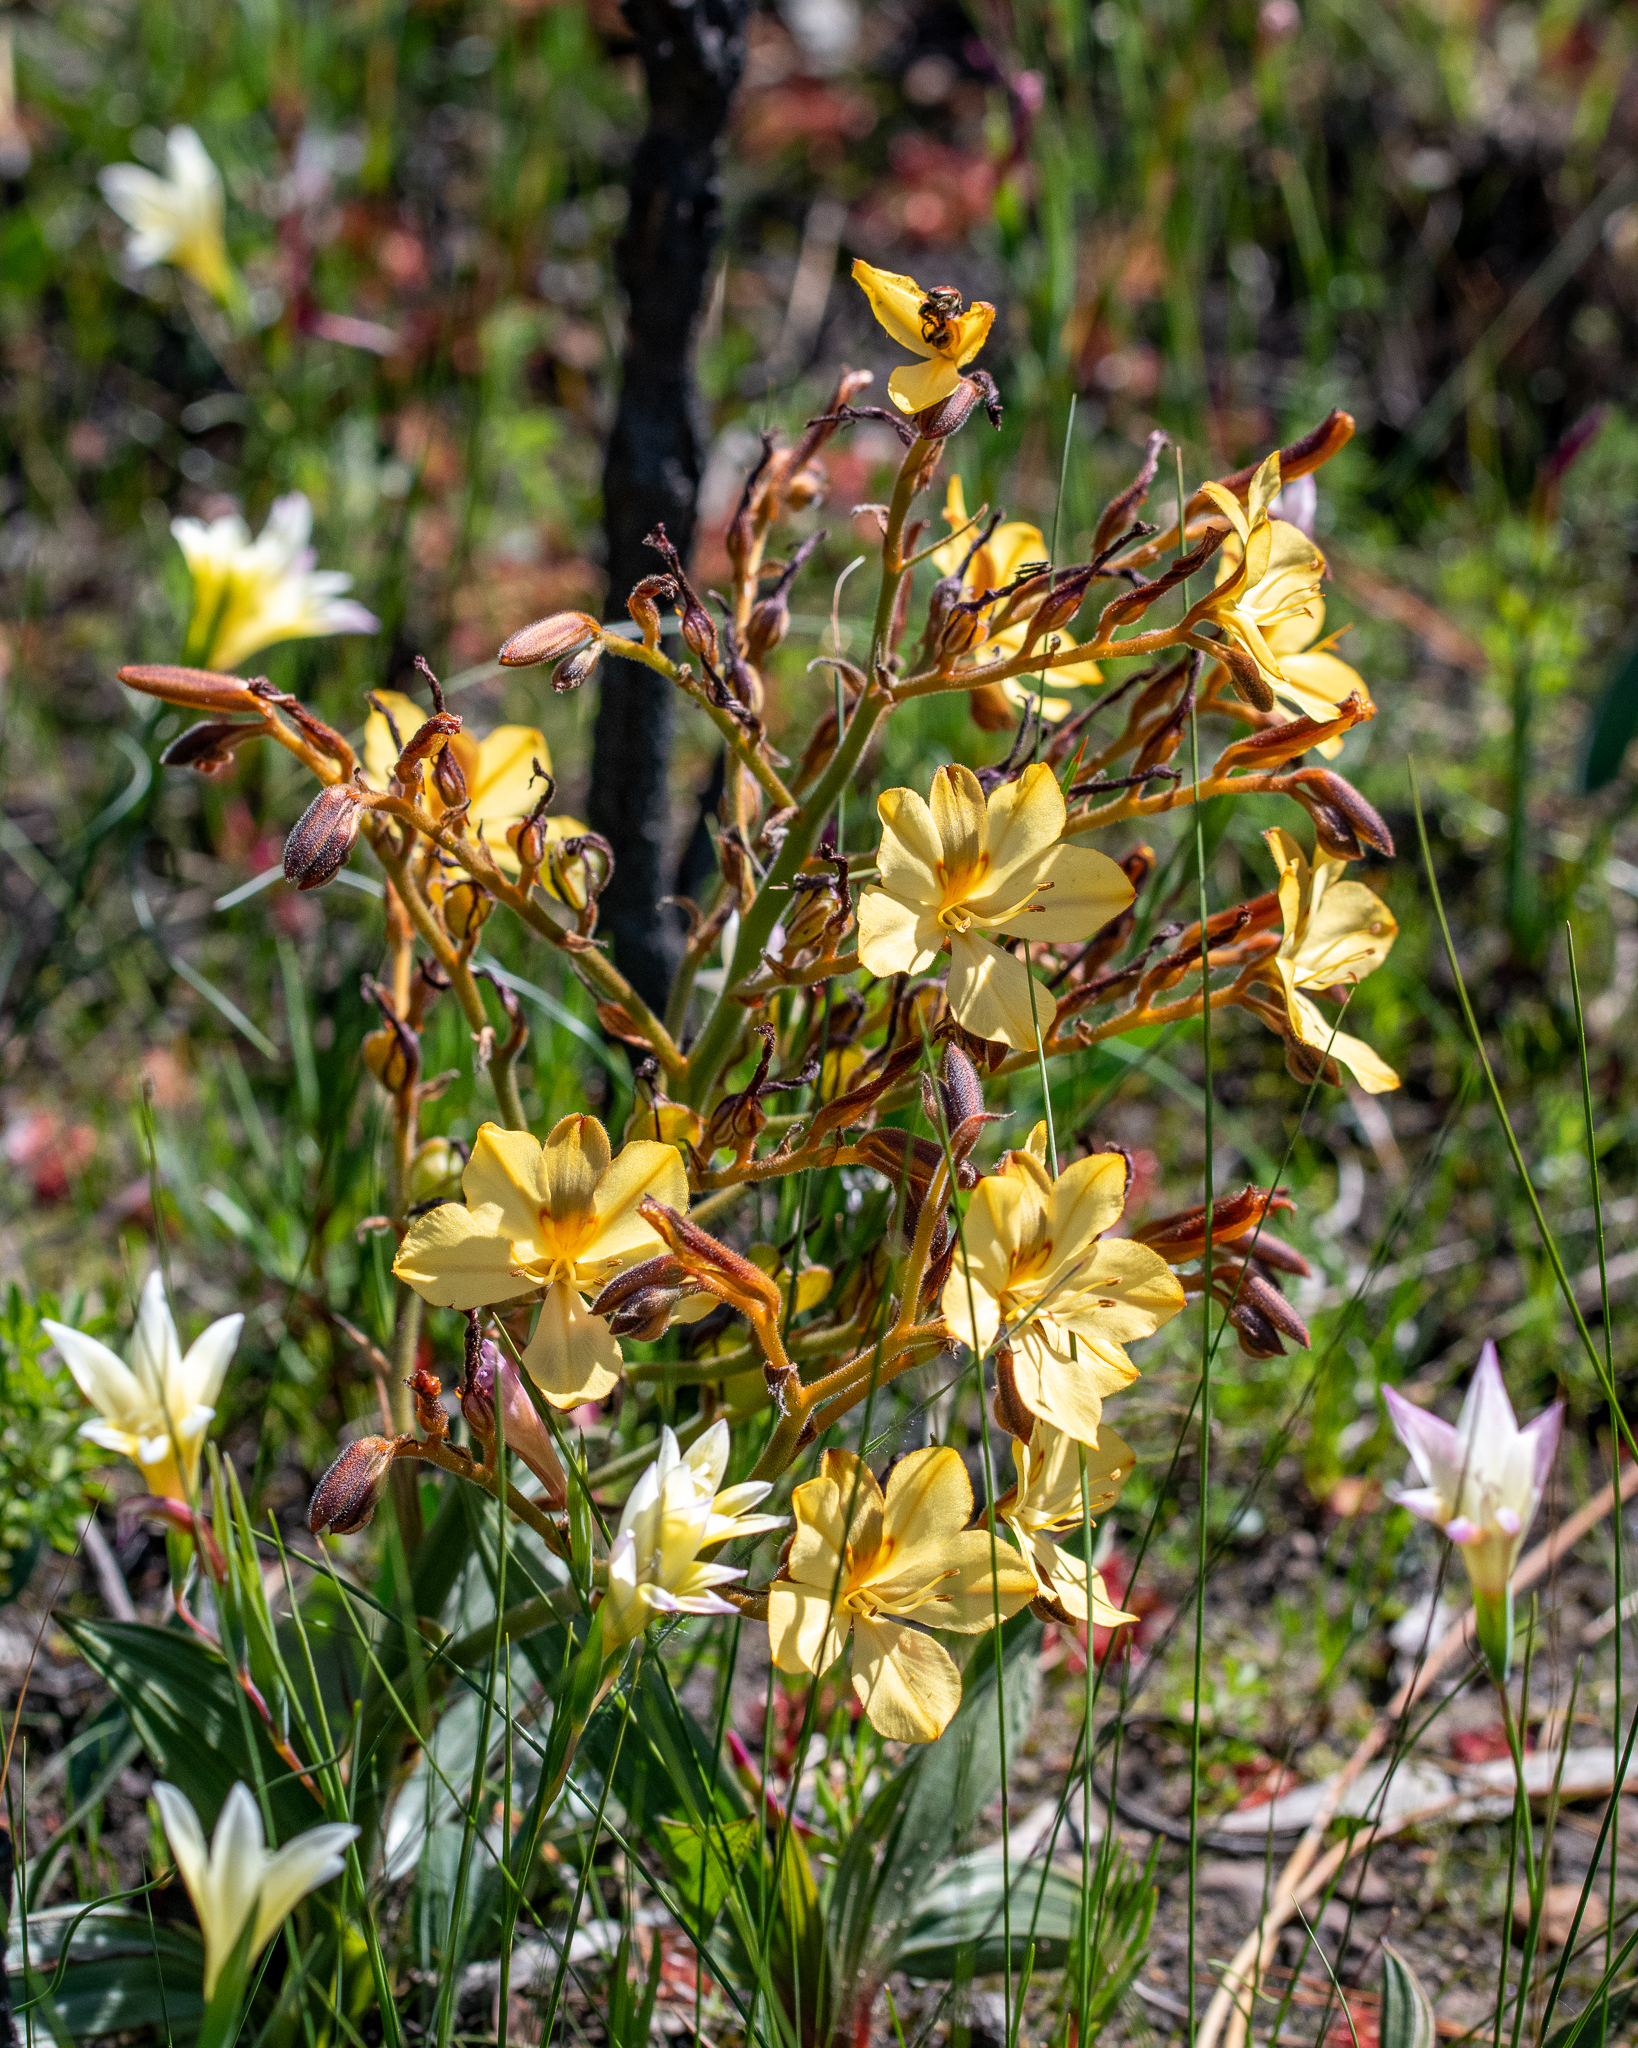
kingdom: Plantae
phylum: Tracheophyta
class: Liliopsida
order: Commelinales
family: Haemodoraceae
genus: Wachendorfia
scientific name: Wachendorfia paniculata
